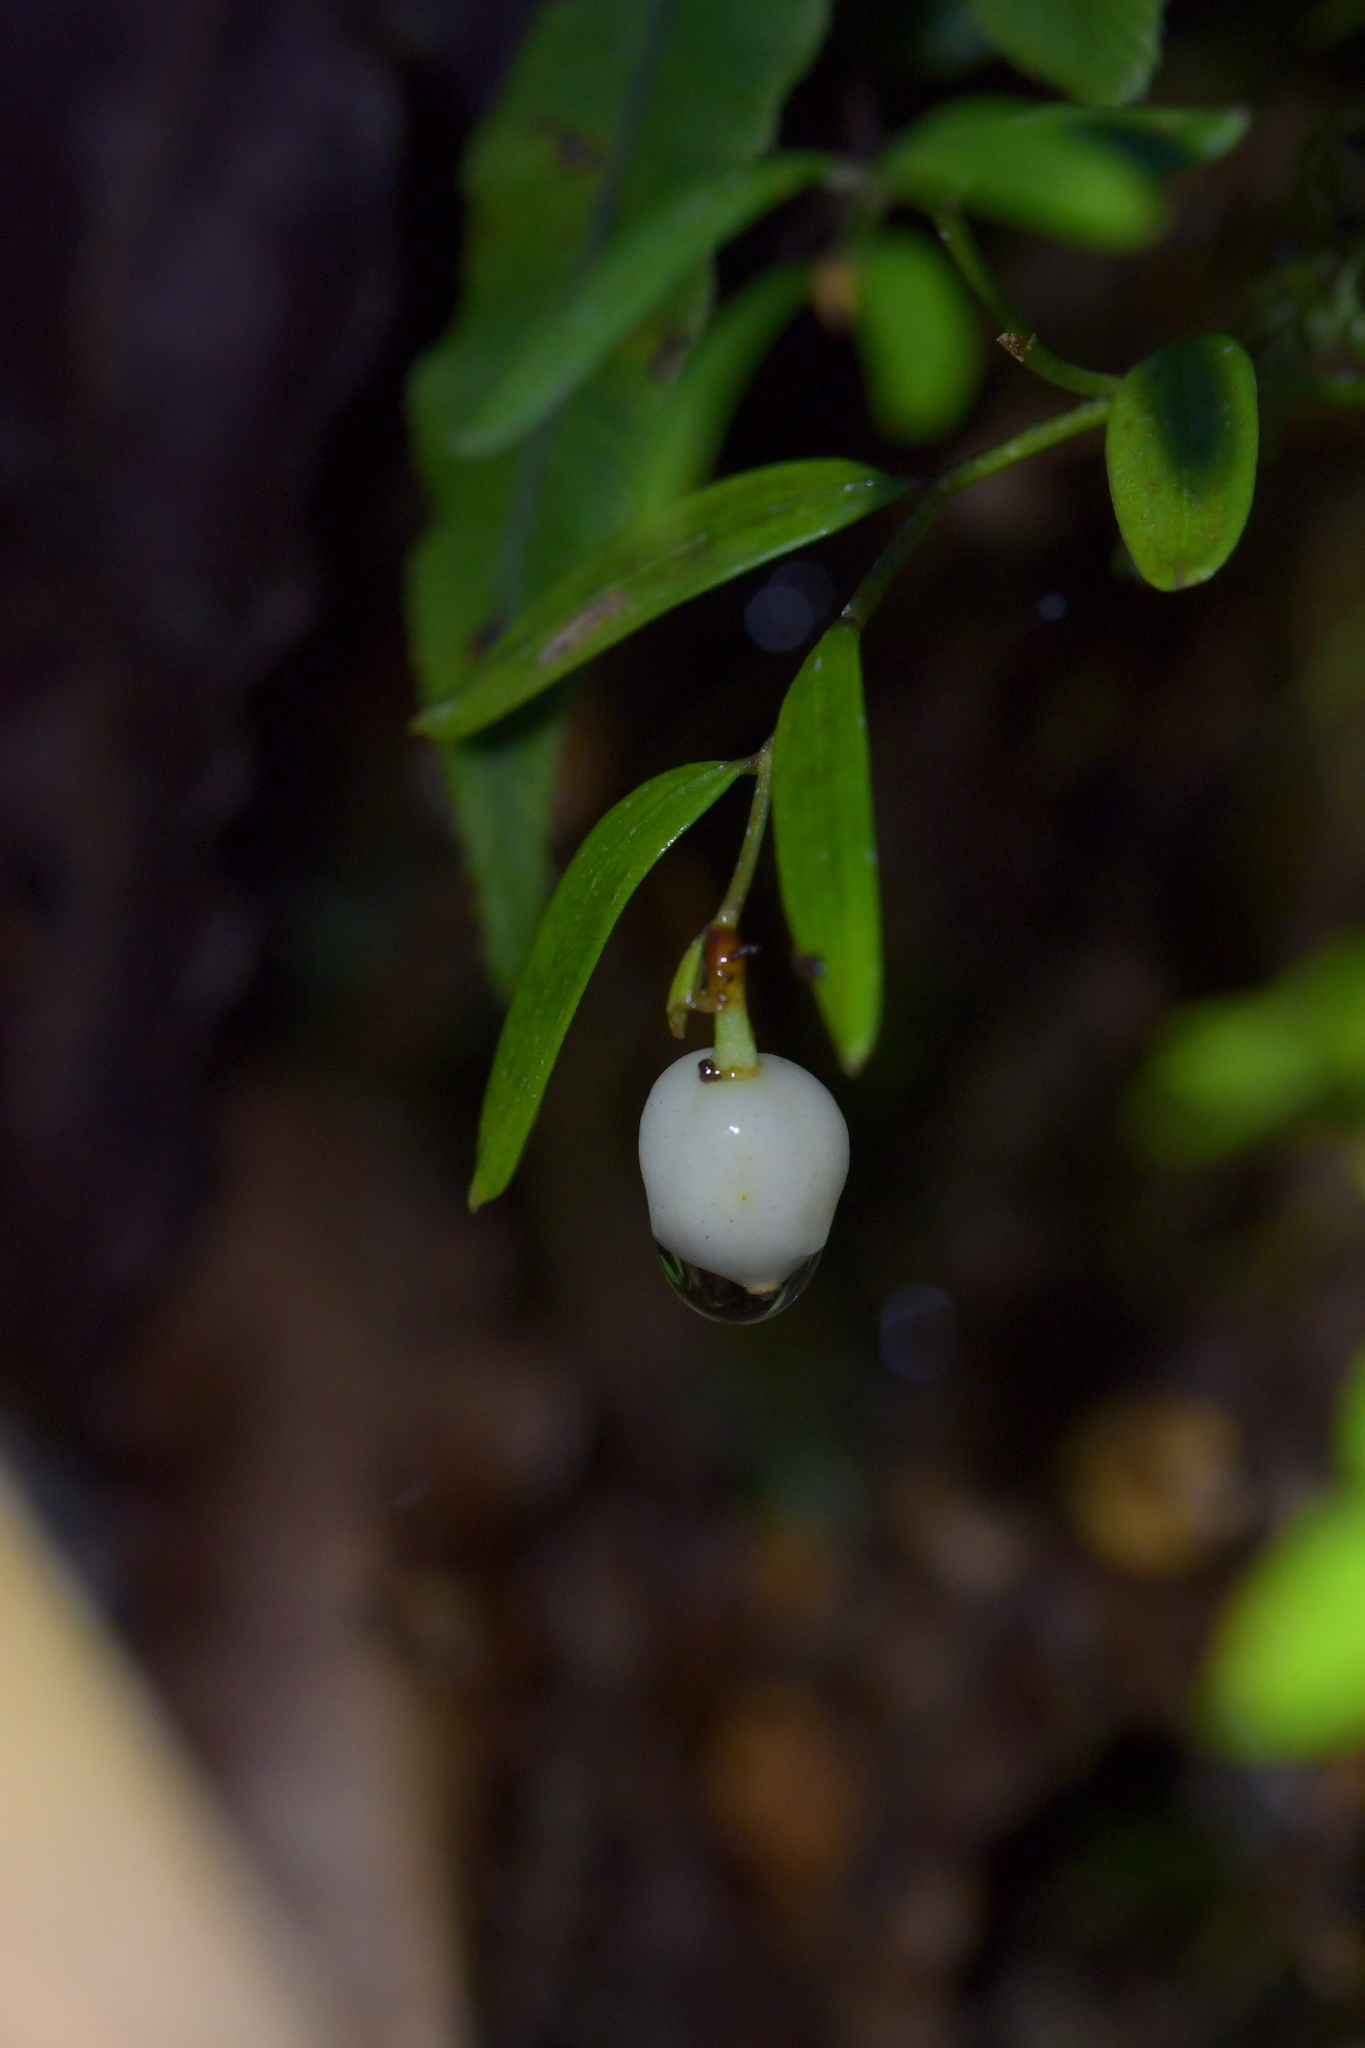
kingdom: Plantae
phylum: Tracheophyta
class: Liliopsida
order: Liliales
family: Alstroemeriaceae
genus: Luzuriaga
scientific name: Luzuriaga parviflora
